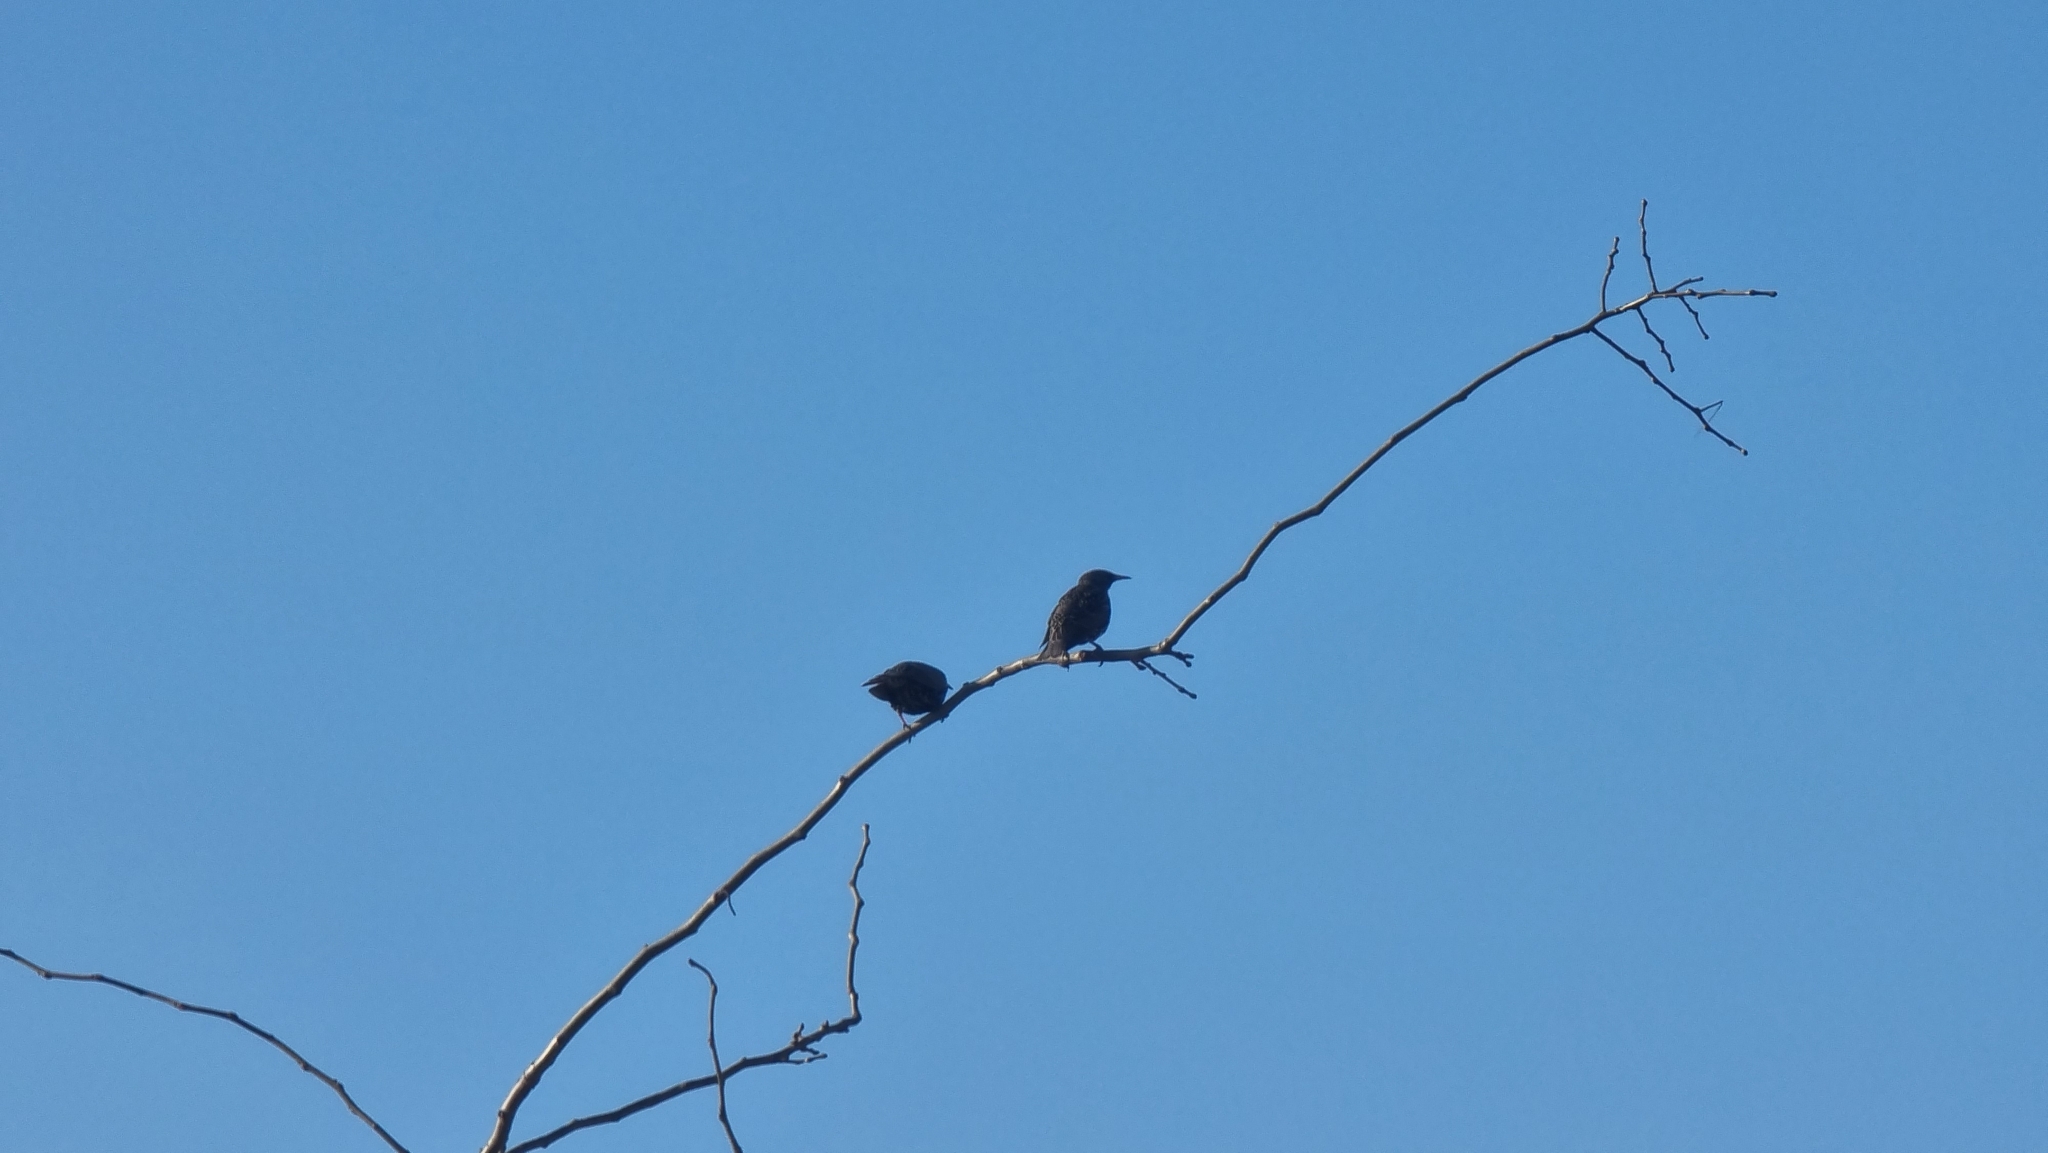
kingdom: Animalia
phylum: Chordata
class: Aves
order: Passeriformes
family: Sturnidae
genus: Sturnus
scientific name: Sturnus vulgaris
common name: Common starling
